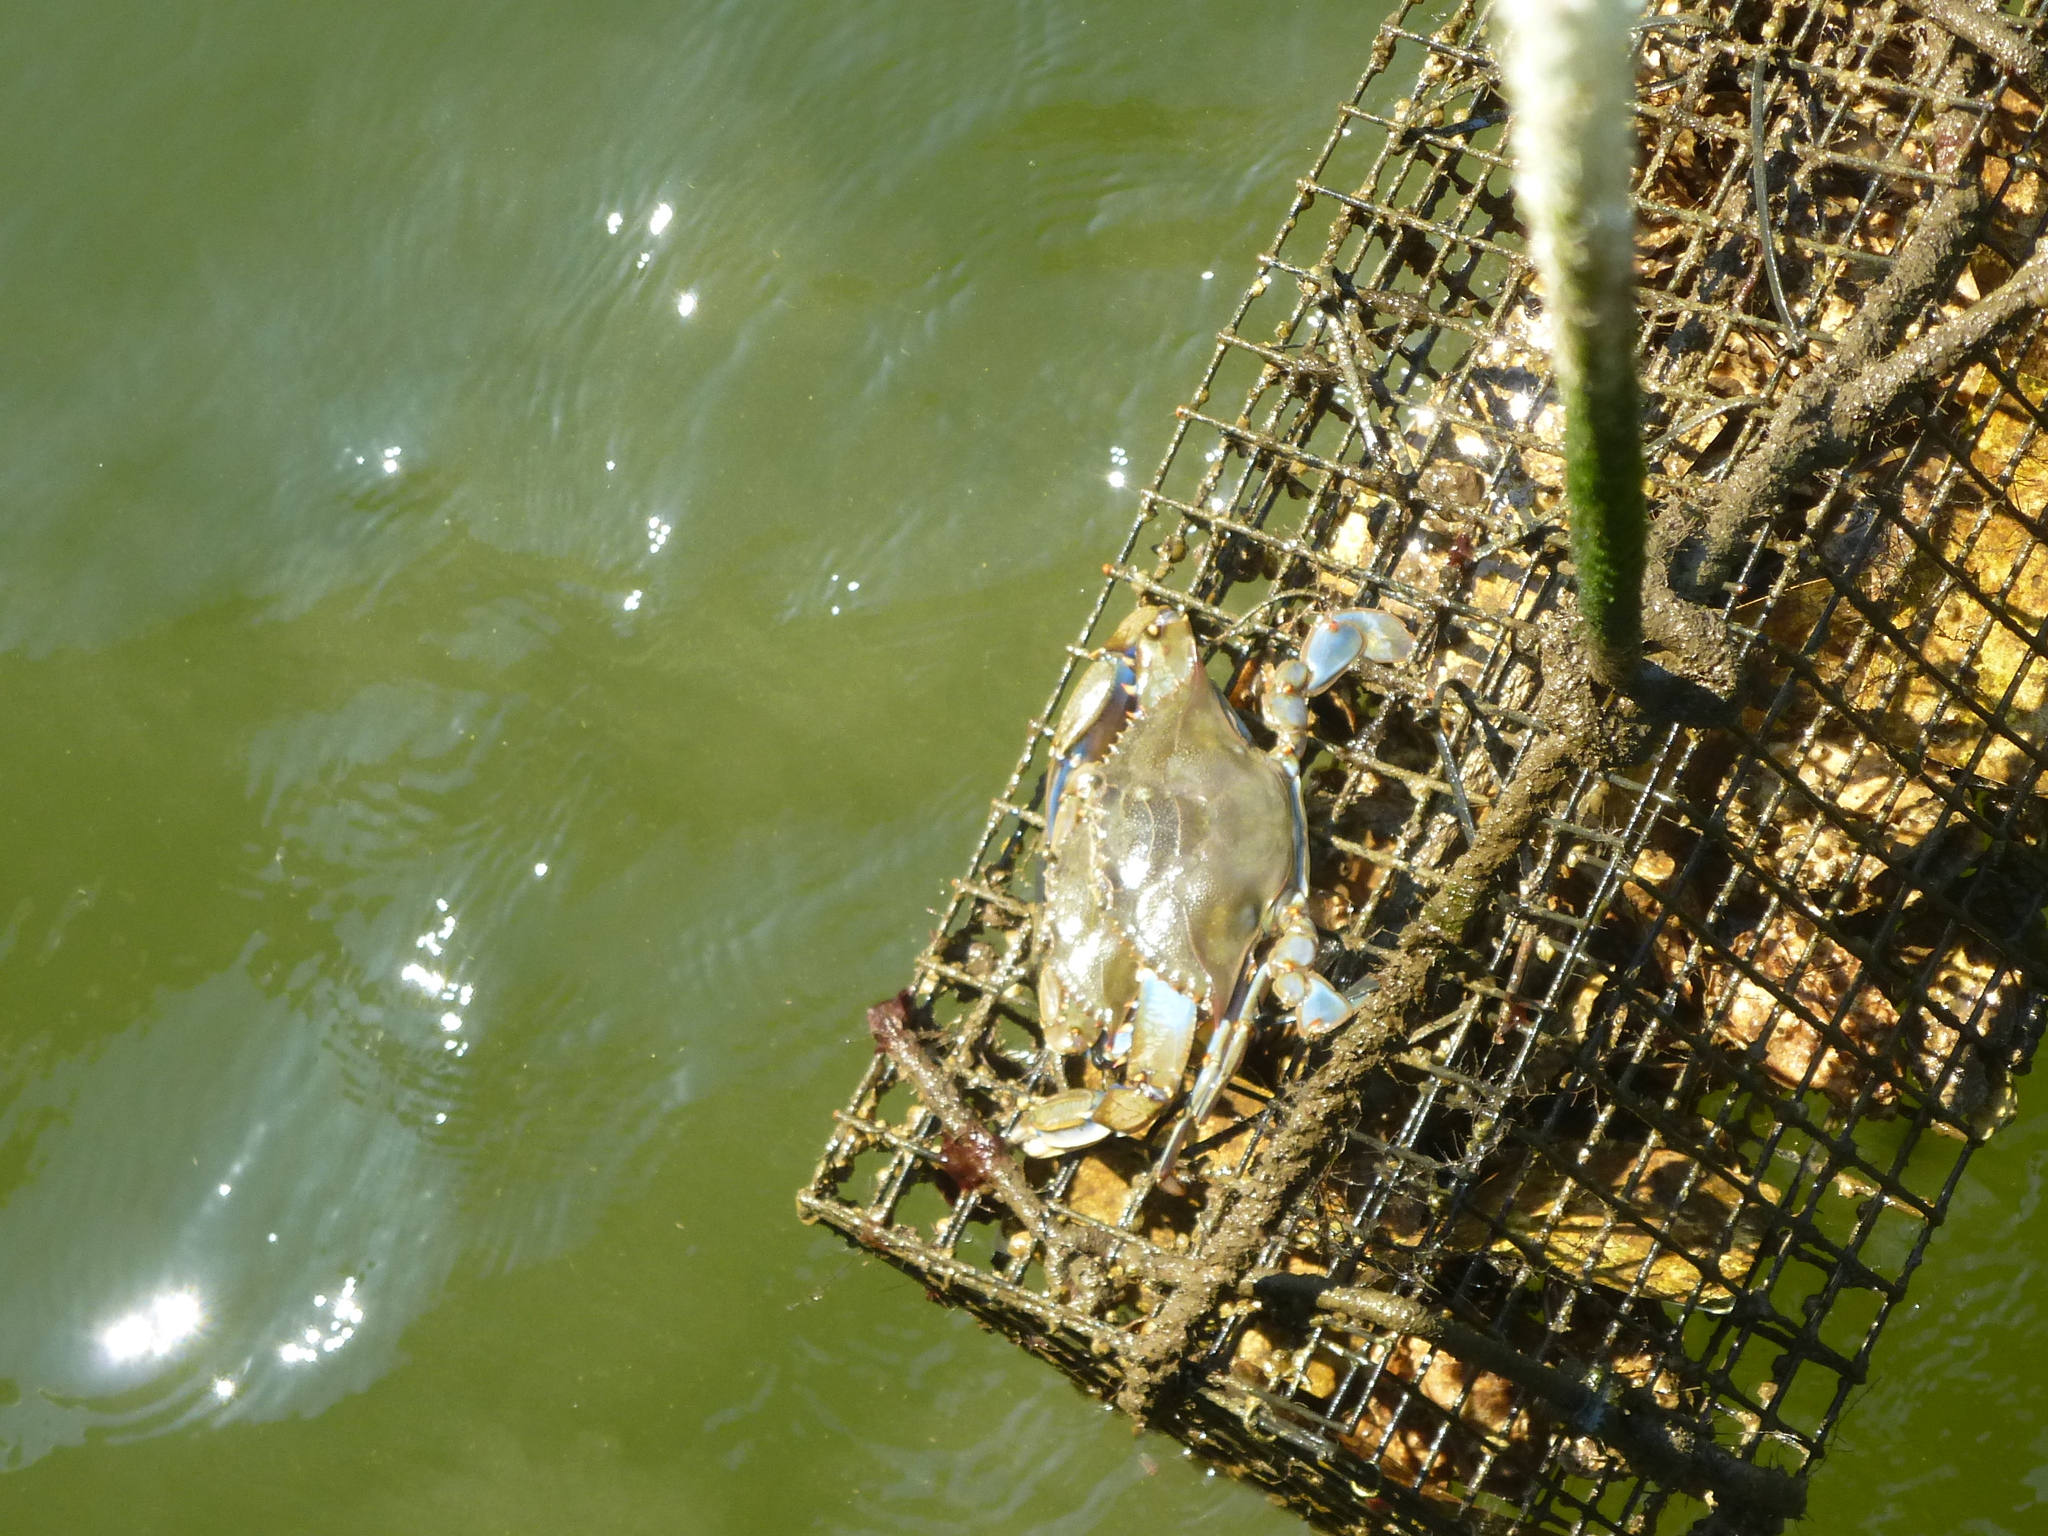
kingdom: Animalia
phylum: Arthropoda
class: Malacostraca
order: Decapoda
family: Portunidae
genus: Callinectes
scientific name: Callinectes sapidus
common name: Blue crab
